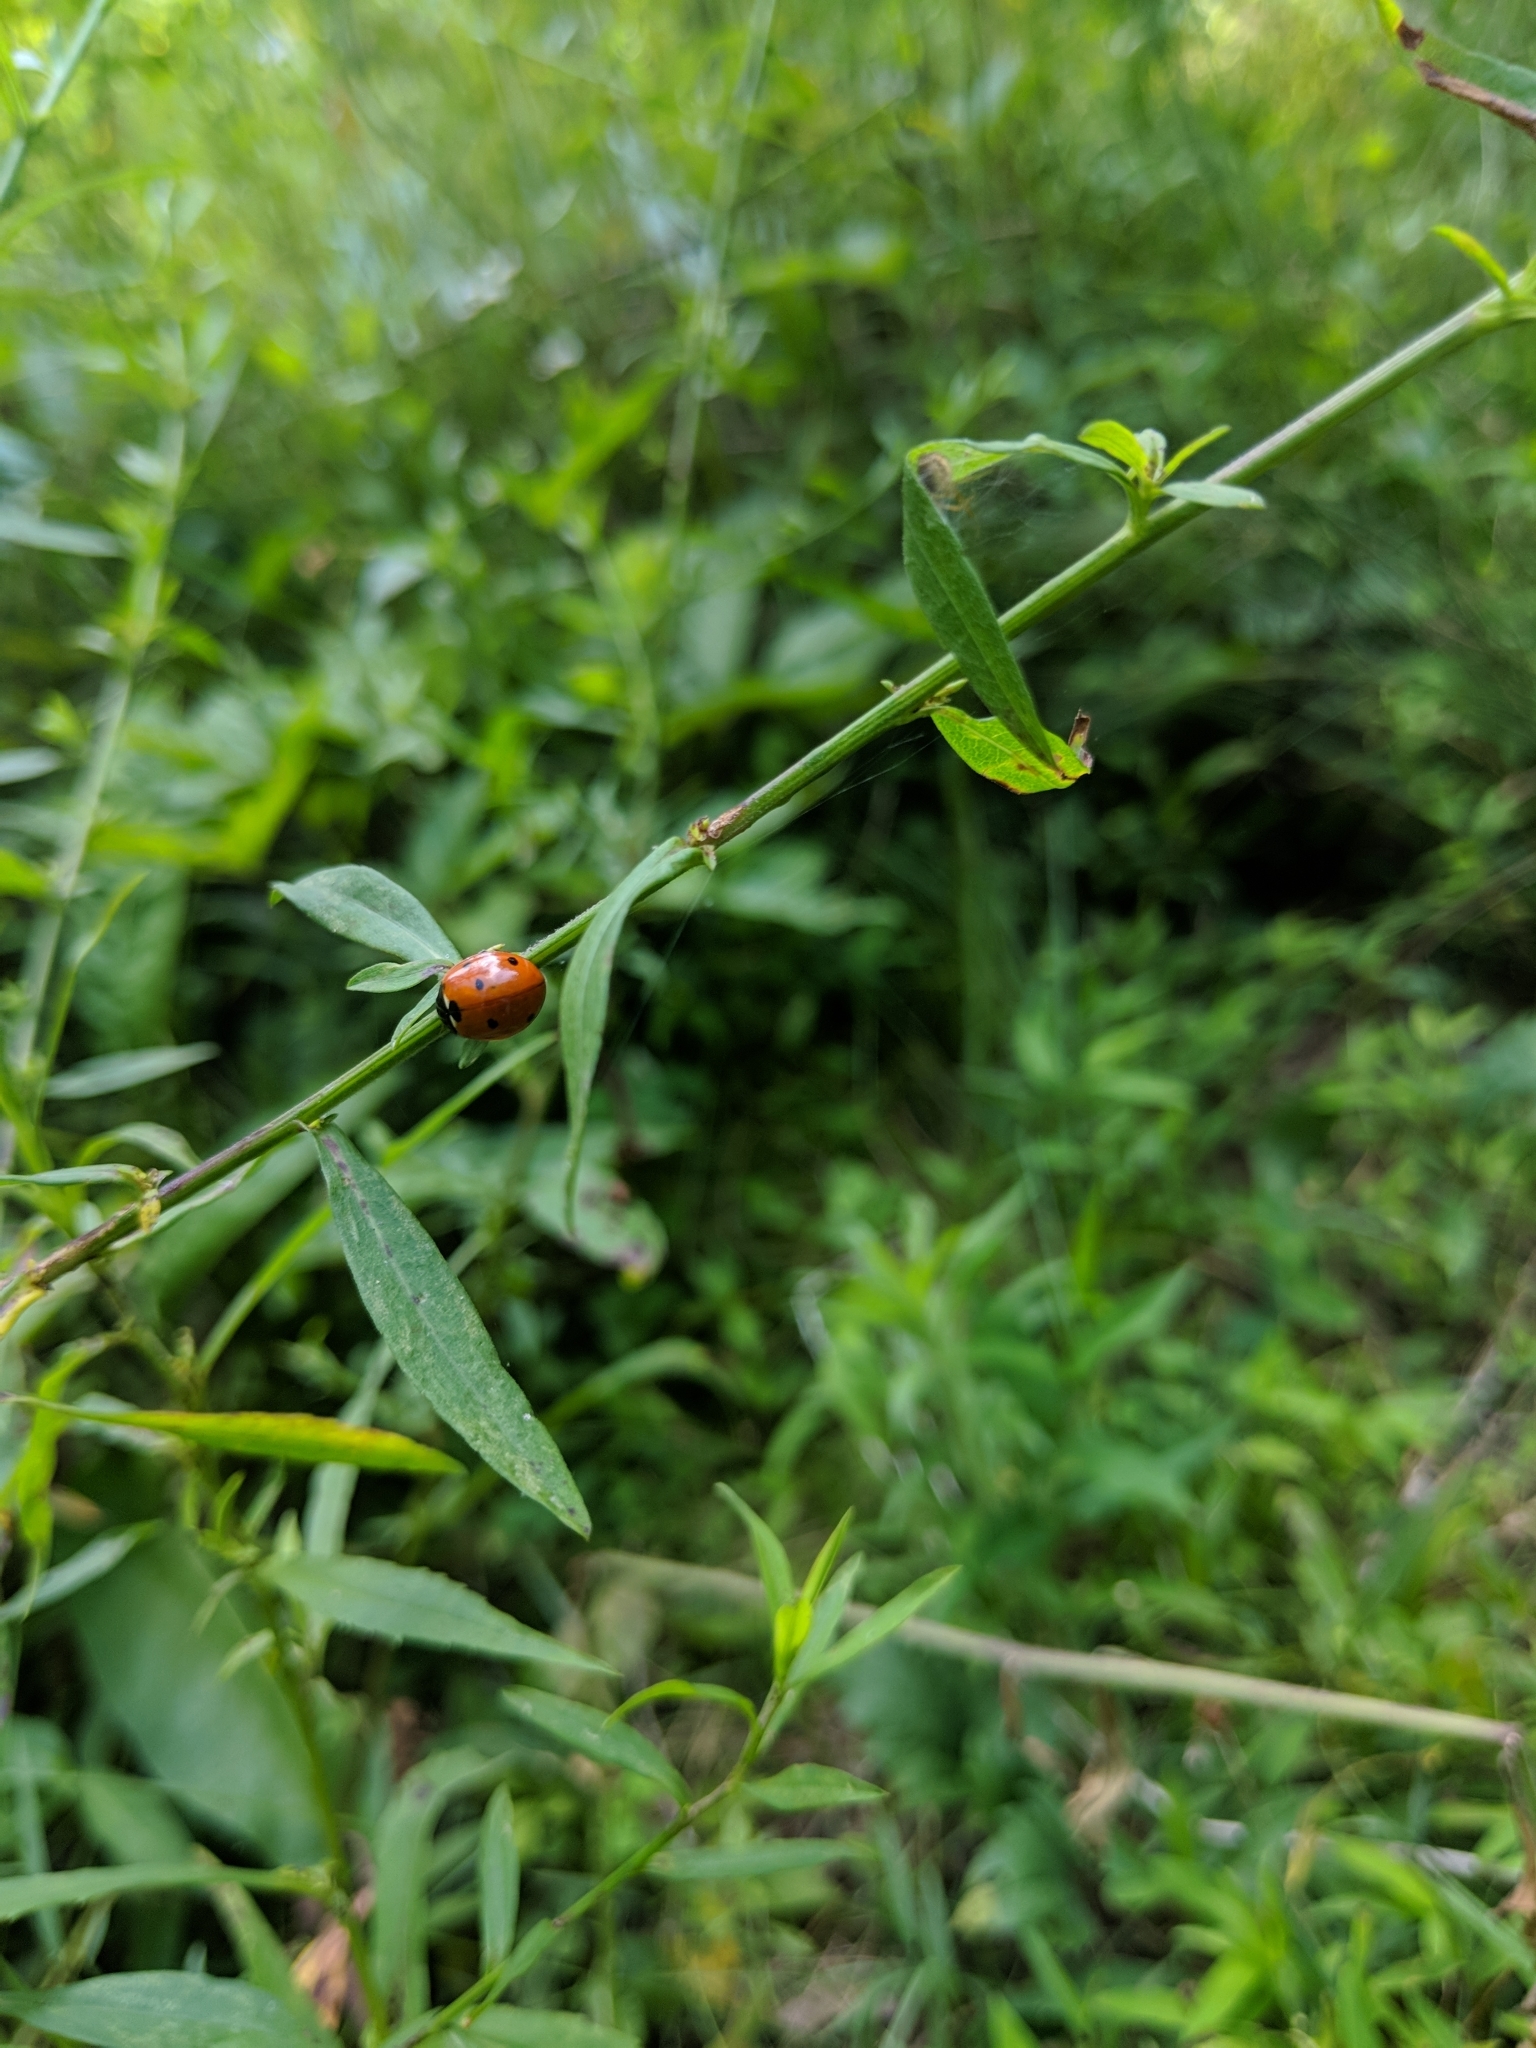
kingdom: Animalia
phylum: Arthropoda
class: Insecta
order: Coleoptera
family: Coccinellidae
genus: Coccinella
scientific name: Coccinella septempunctata
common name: Sevenspotted lady beetle
